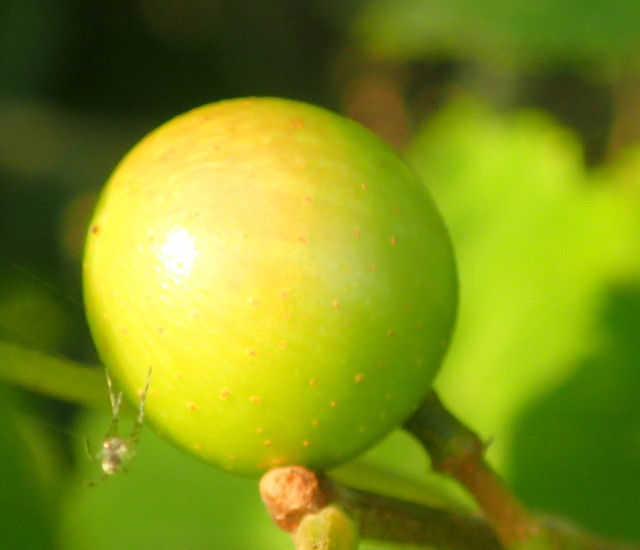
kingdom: Plantae
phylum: Tracheophyta
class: Magnoliopsida
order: Vitales
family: Vitaceae
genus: Vitis
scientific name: Vitis rotundifolia
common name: Muscadine grape
